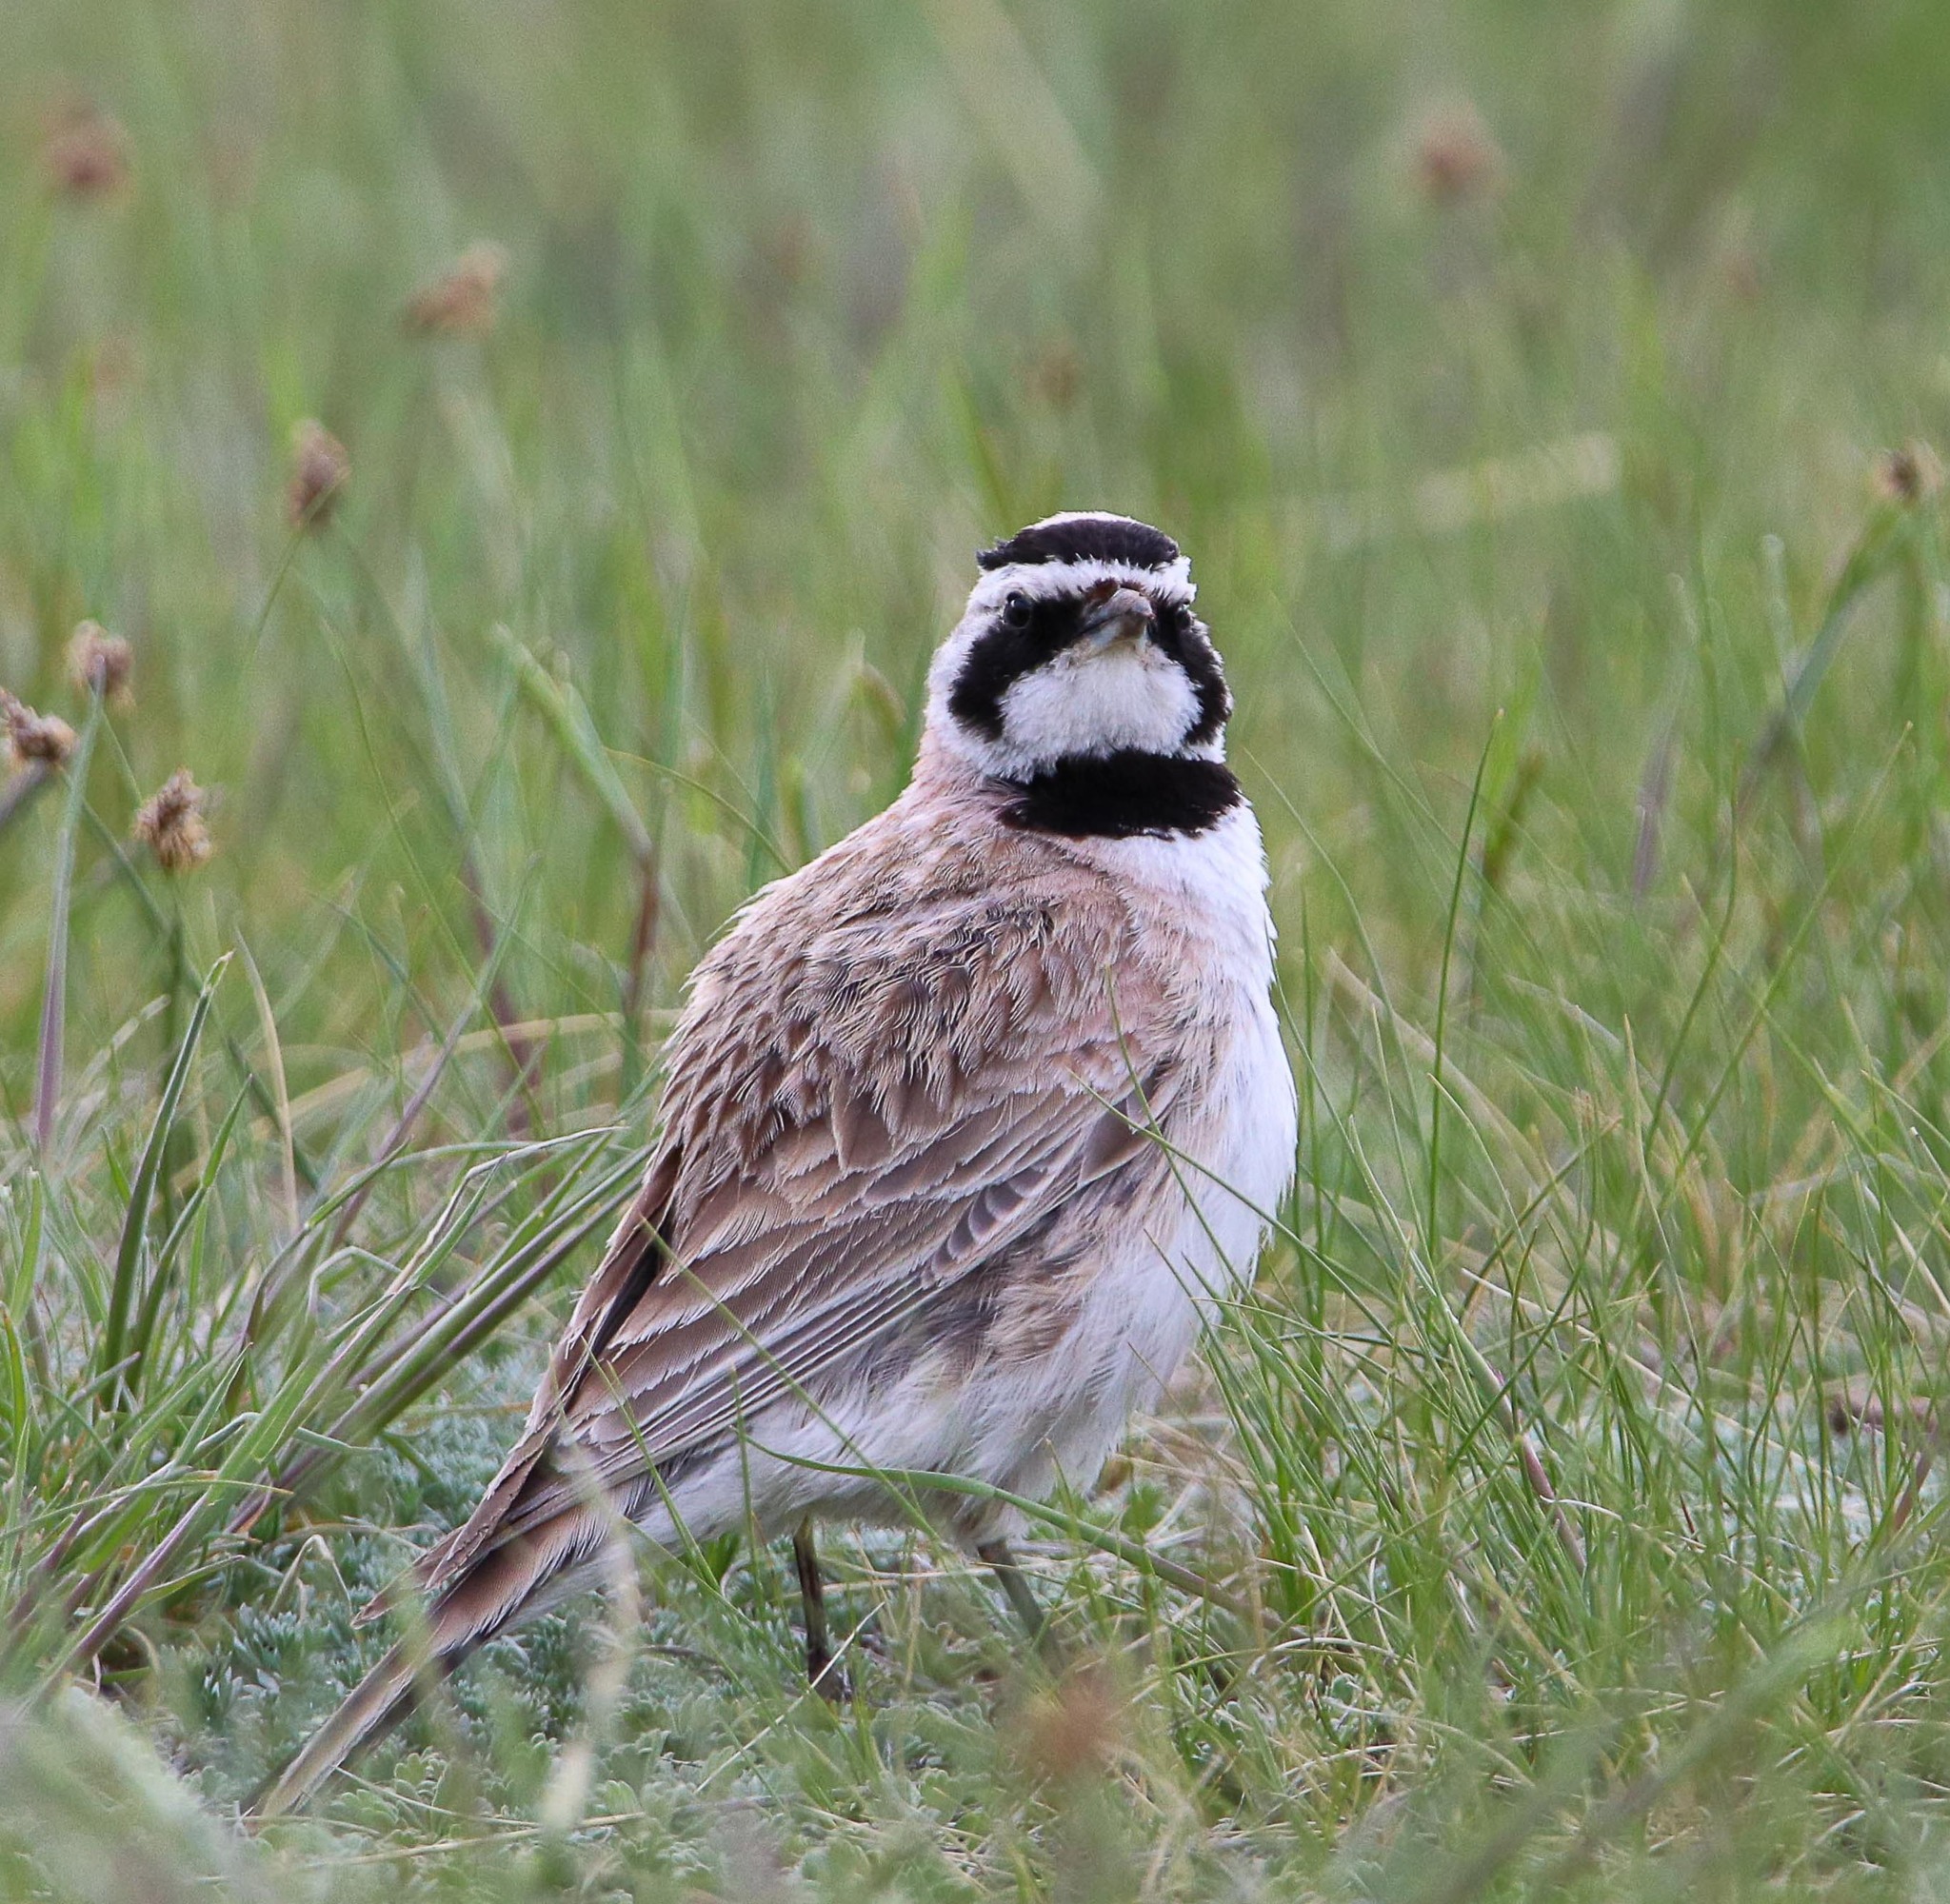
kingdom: Animalia
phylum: Chordata
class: Aves
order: Passeriformes
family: Alaudidae
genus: Eremophila
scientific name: Eremophila alpestris
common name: Horned lark
